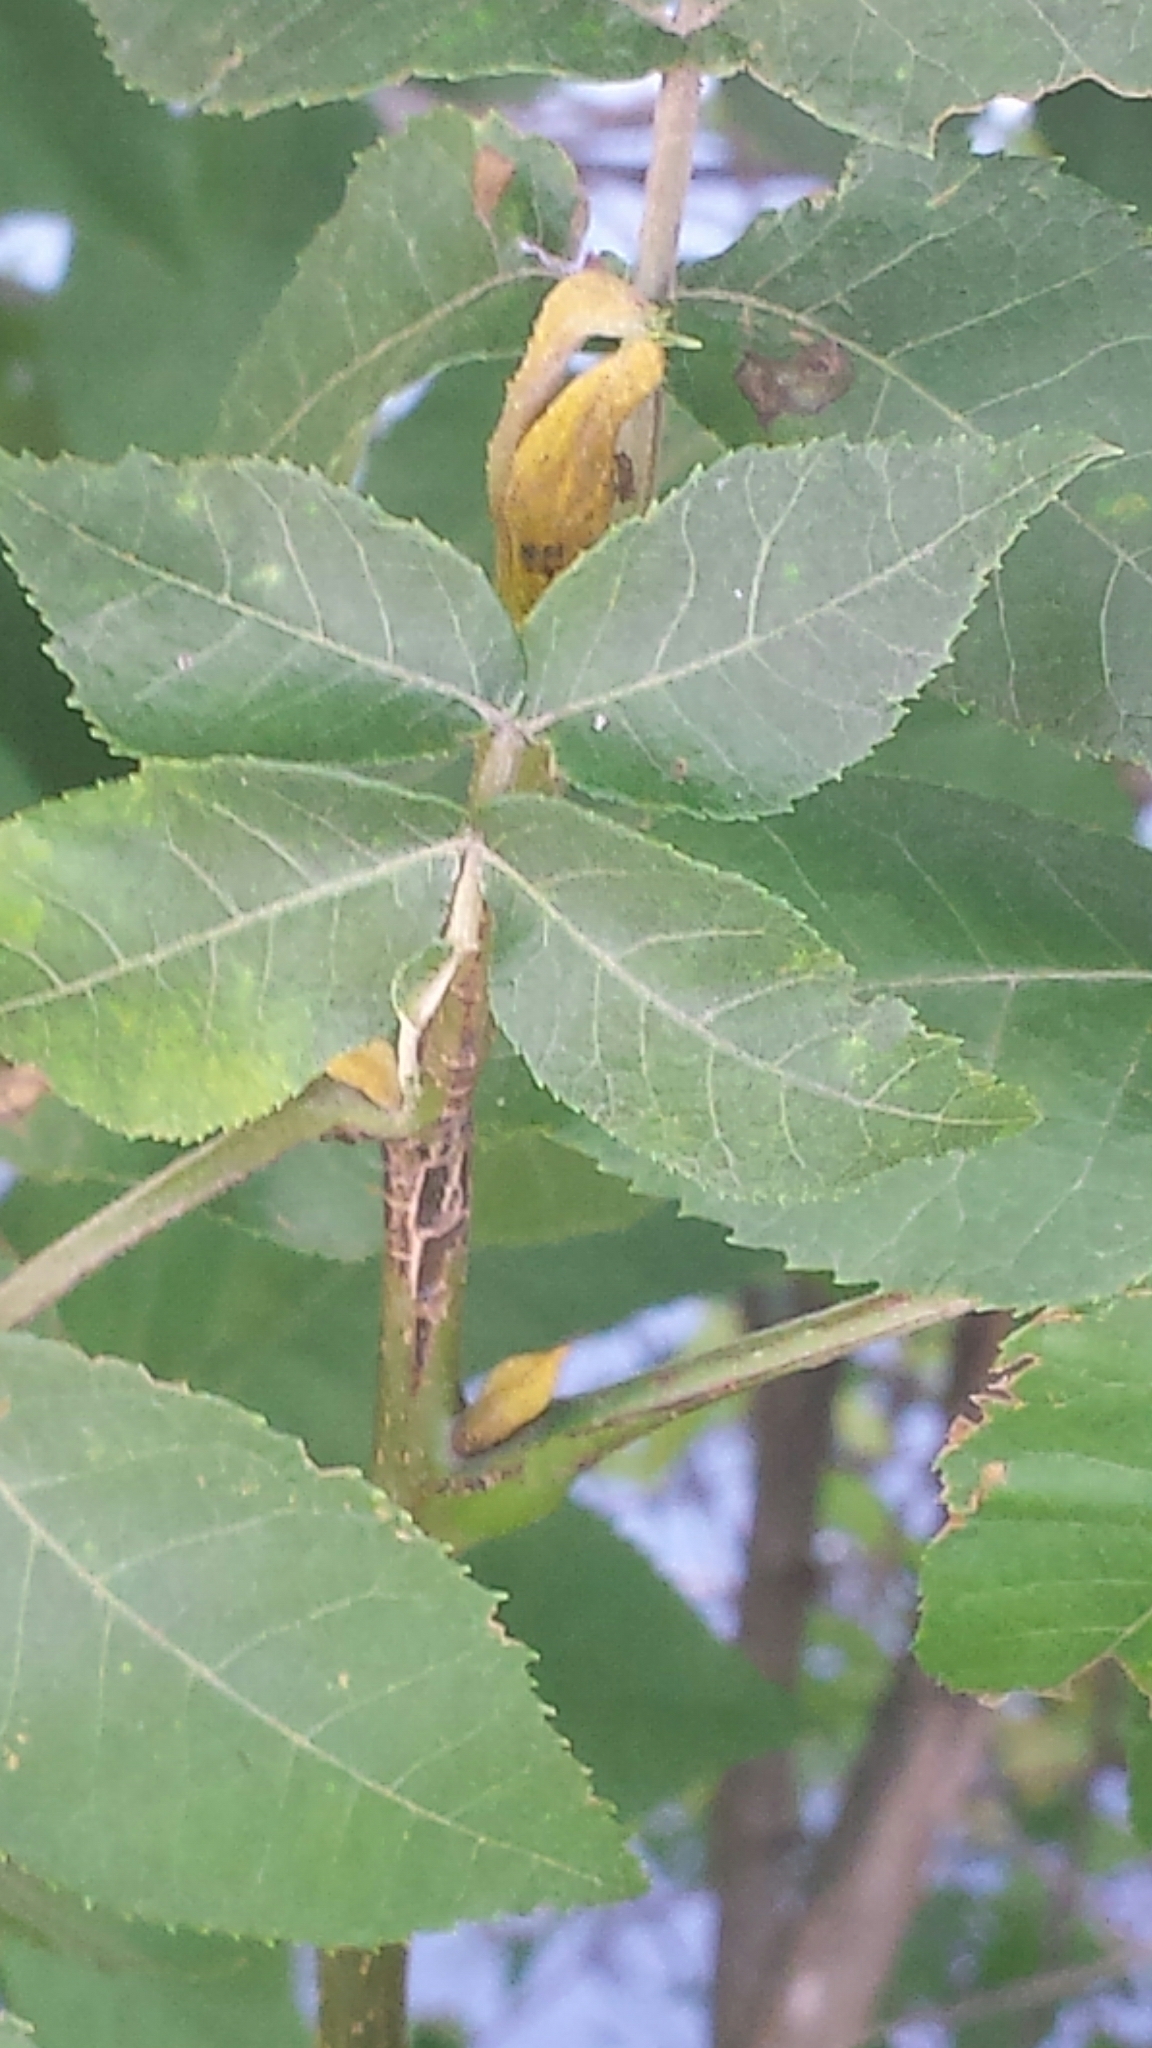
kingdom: Plantae
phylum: Tracheophyta
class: Magnoliopsida
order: Fagales
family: Juglandaceae
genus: Carya
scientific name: Carya cordiformis
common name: Bitternut hickory
